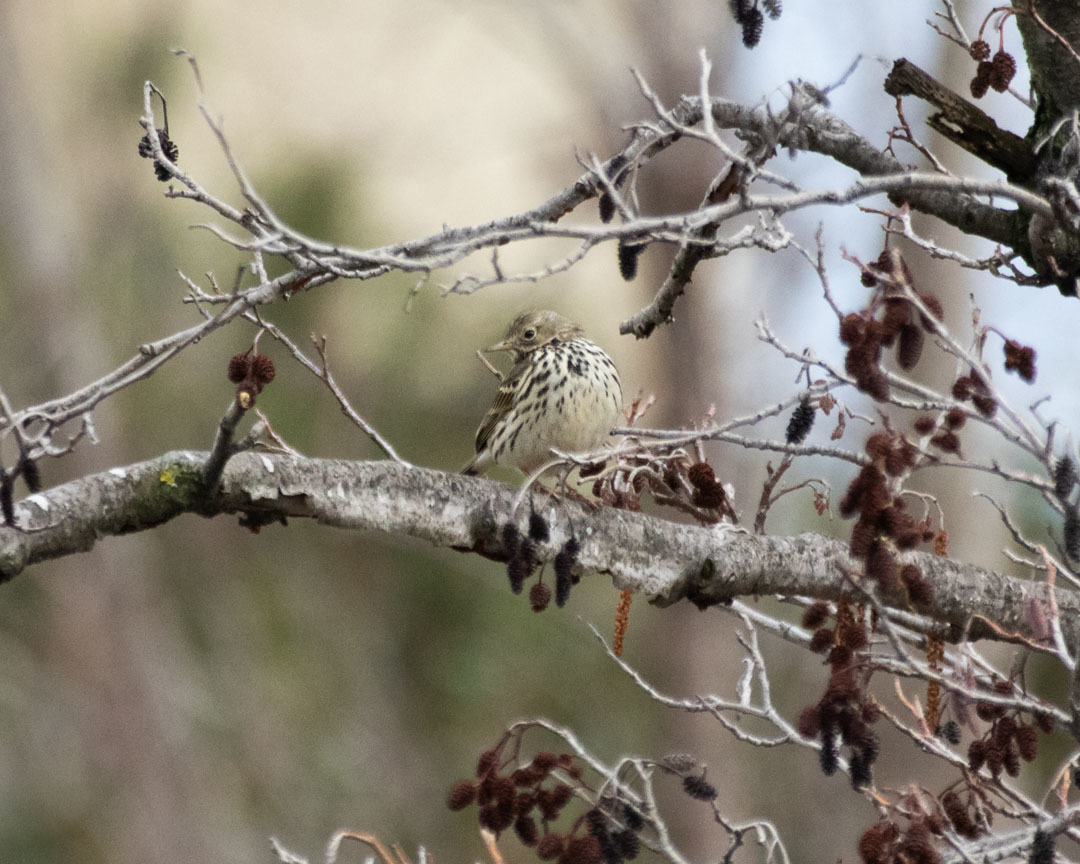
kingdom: Animalia
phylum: Chordata
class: Aves
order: Passeriformes
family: Motacillidae
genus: Anthus
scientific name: Anthus pratensis
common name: Meadow pipit
